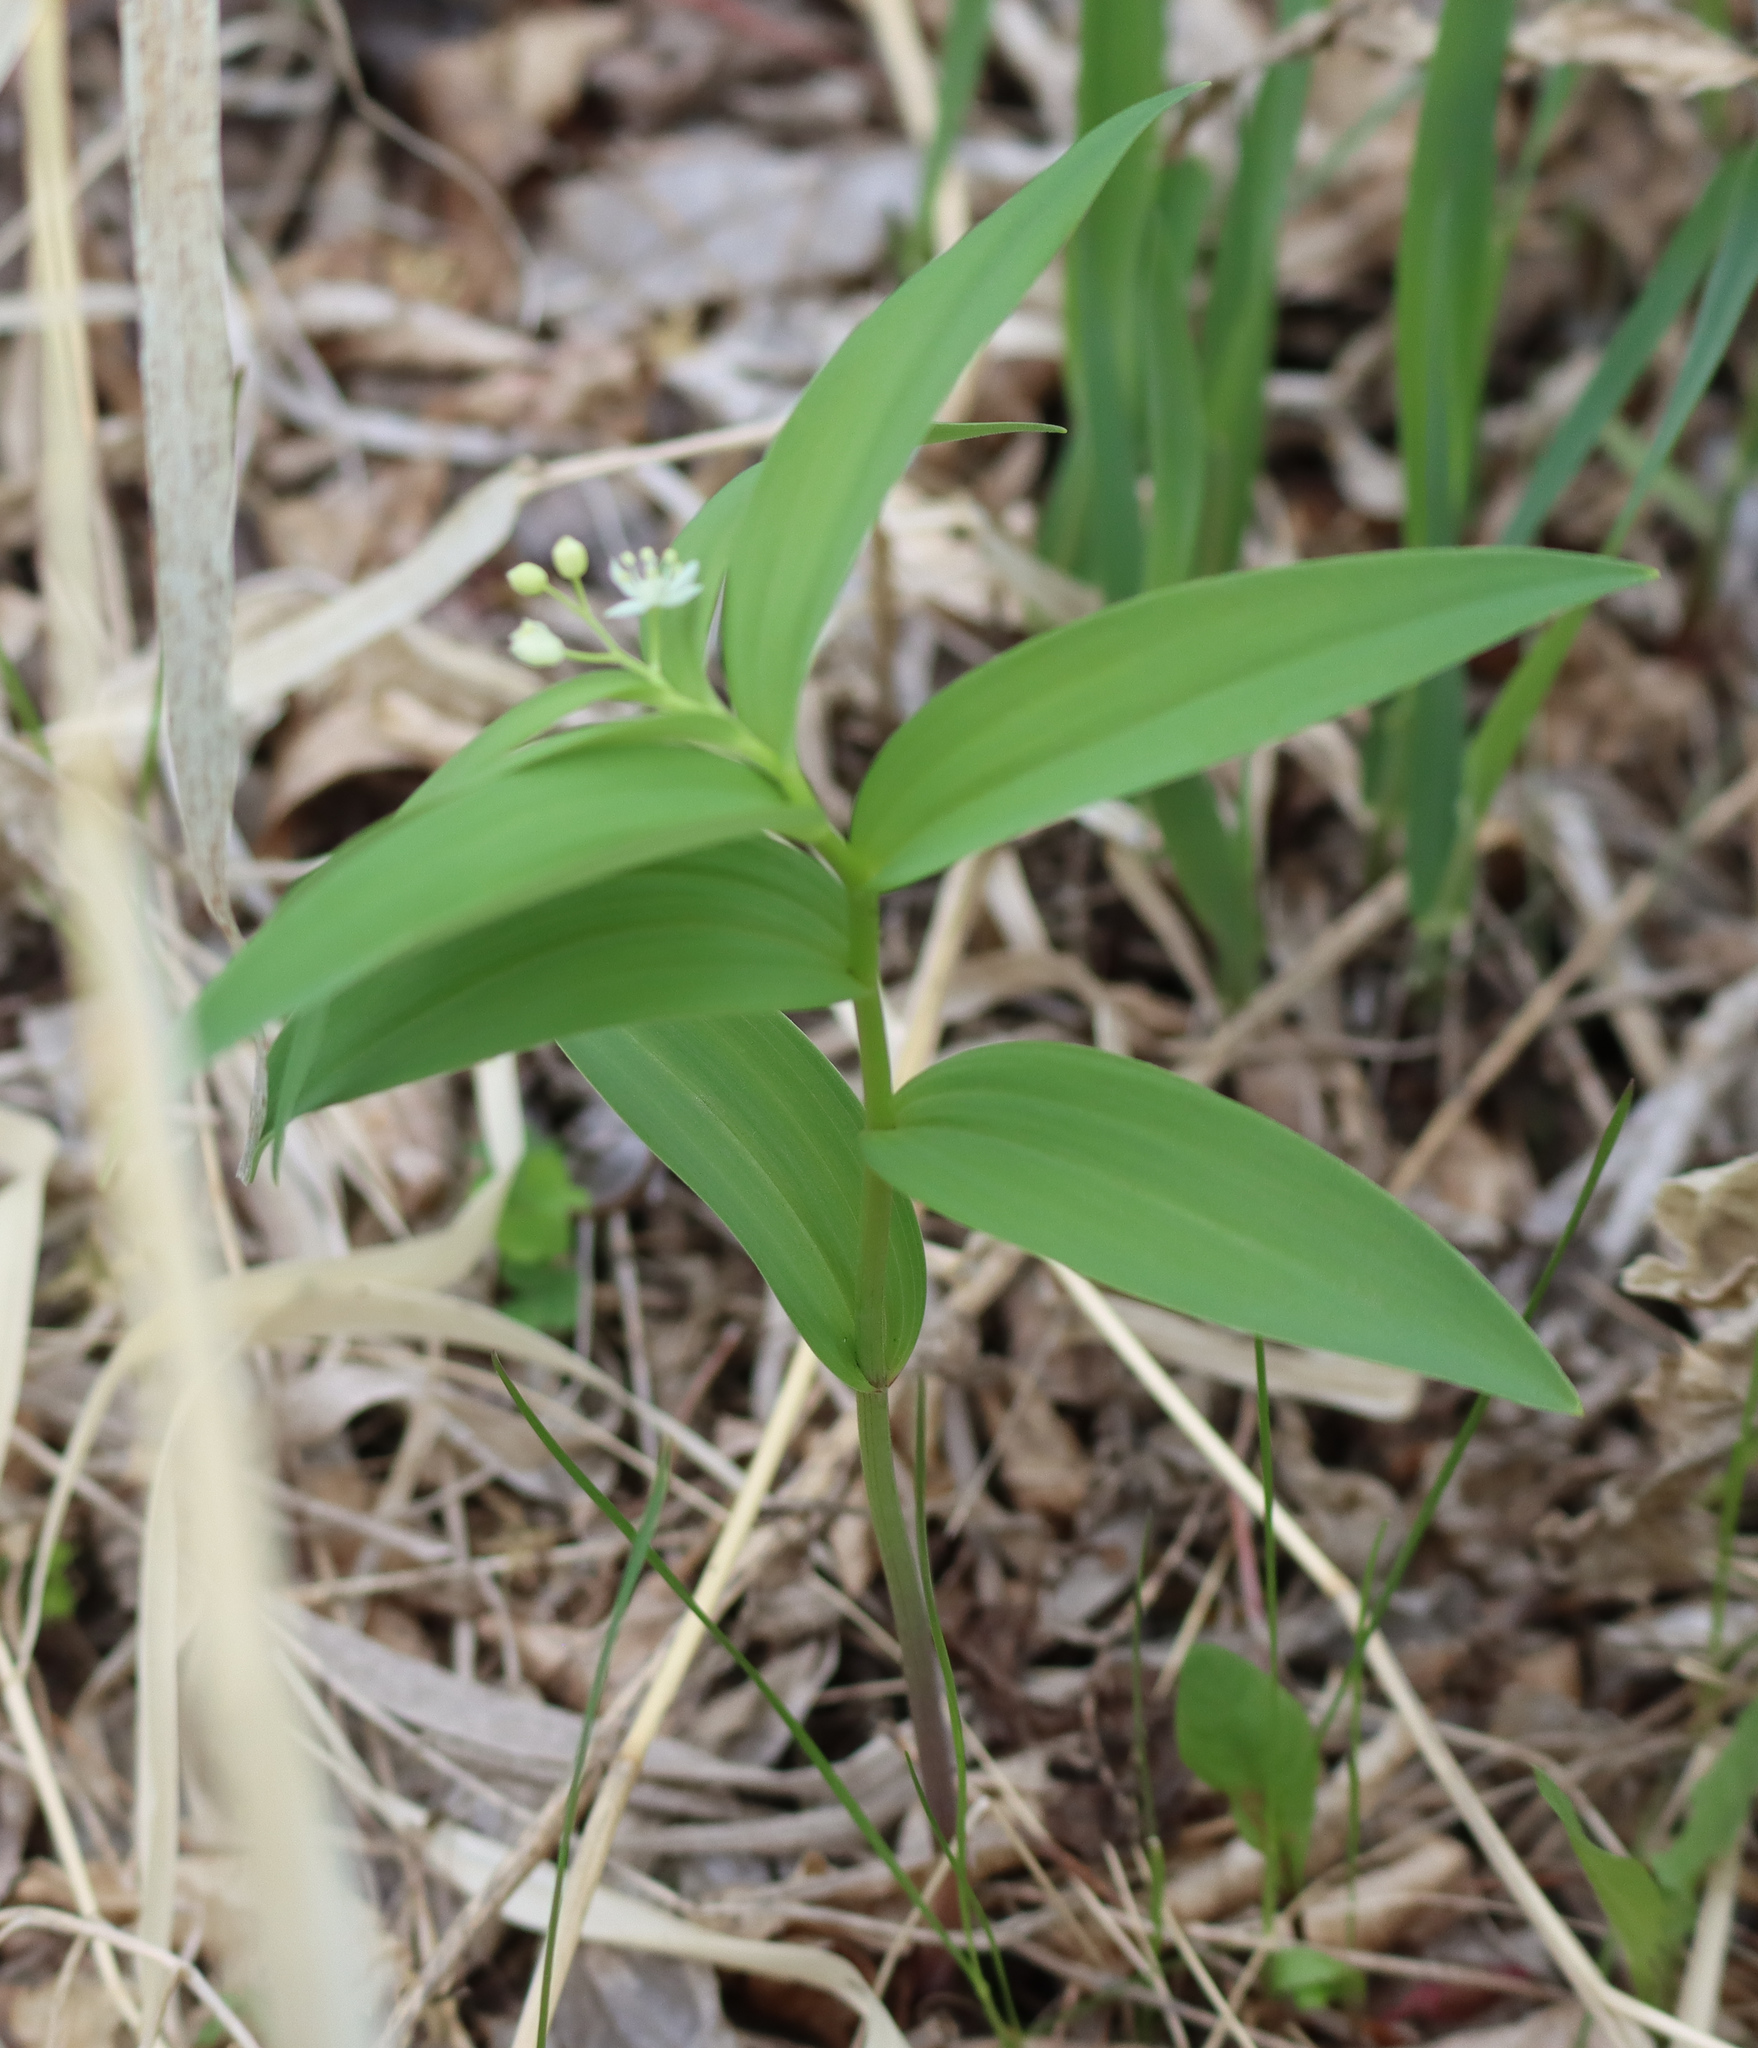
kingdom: Plantae
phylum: Tracheophyta
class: Liliopsida
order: Asparagales
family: Asparagaceae
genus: Maianthemum
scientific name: Maianthemum stellatum
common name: Little false solomon's seal
